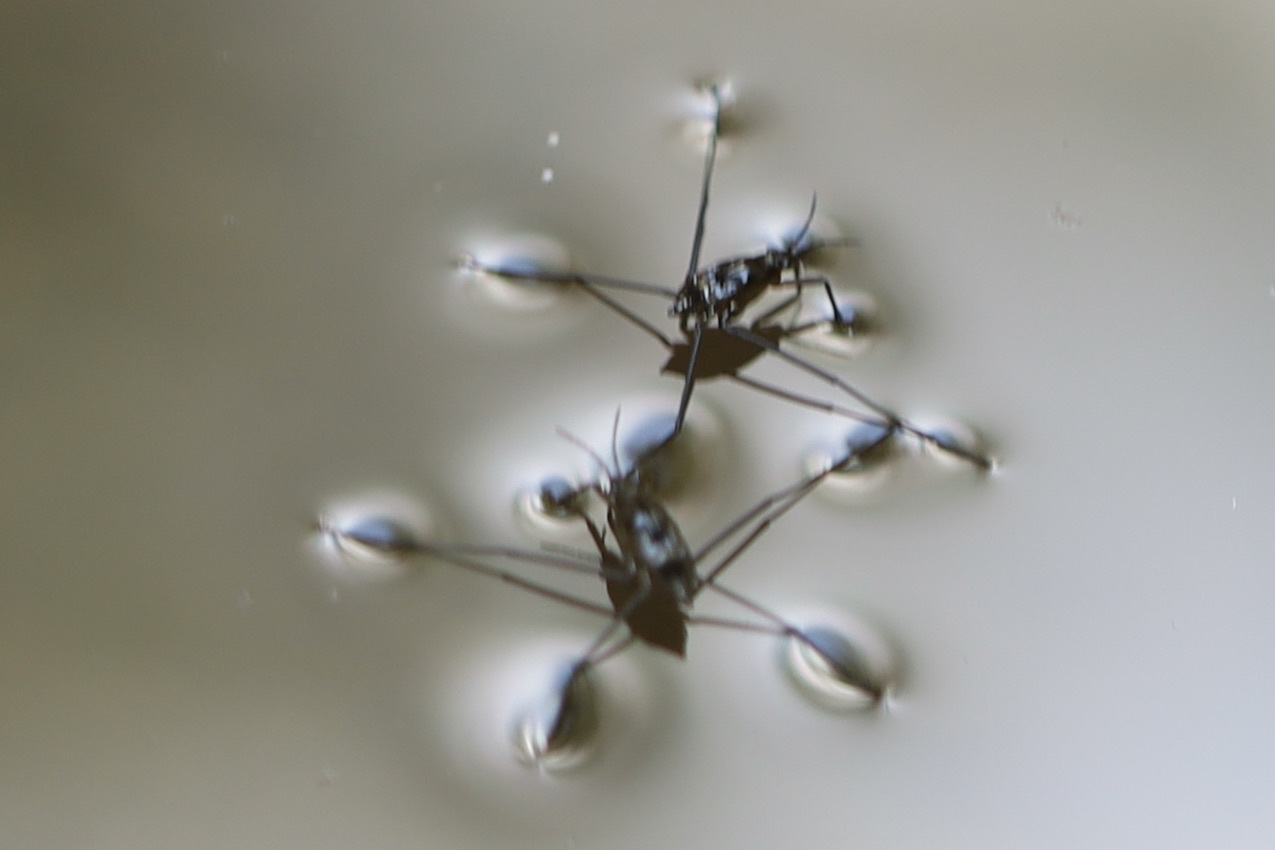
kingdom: Animalia
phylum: Arthropoda
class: Insecta
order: Hemiptera
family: Gerridae
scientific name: Gerridae
